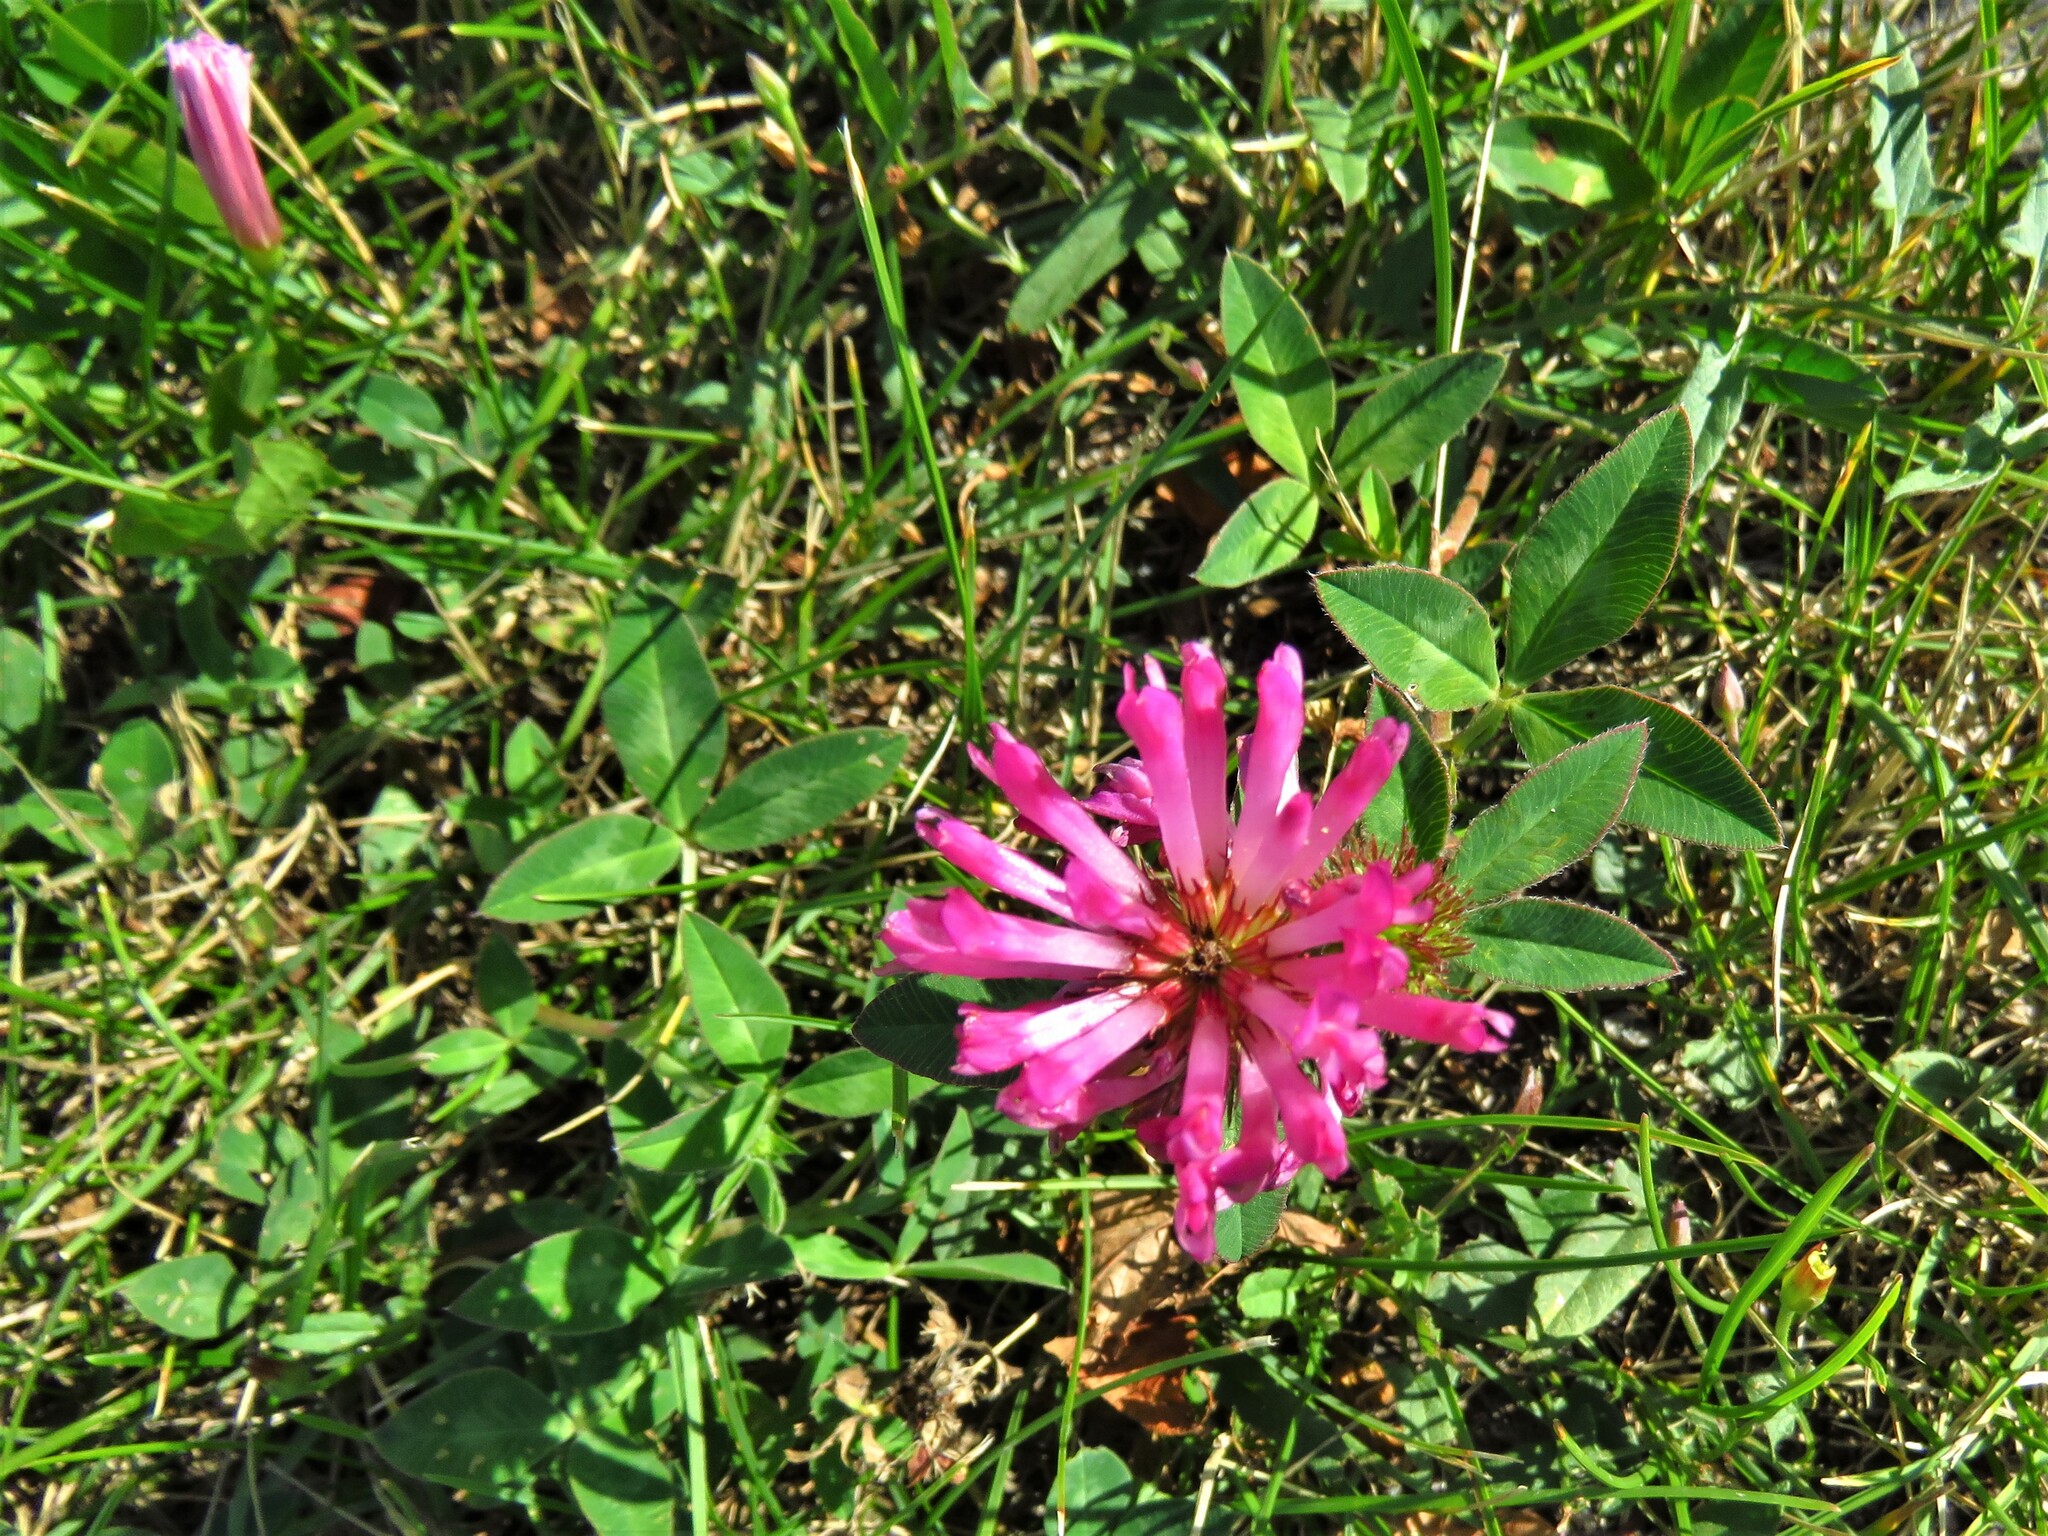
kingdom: Plantae
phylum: Tracheophyta
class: Magnoliopsida
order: Fabales
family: Fabaceae
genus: Trifolium
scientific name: Trifolium medium
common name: Zigzag clover
